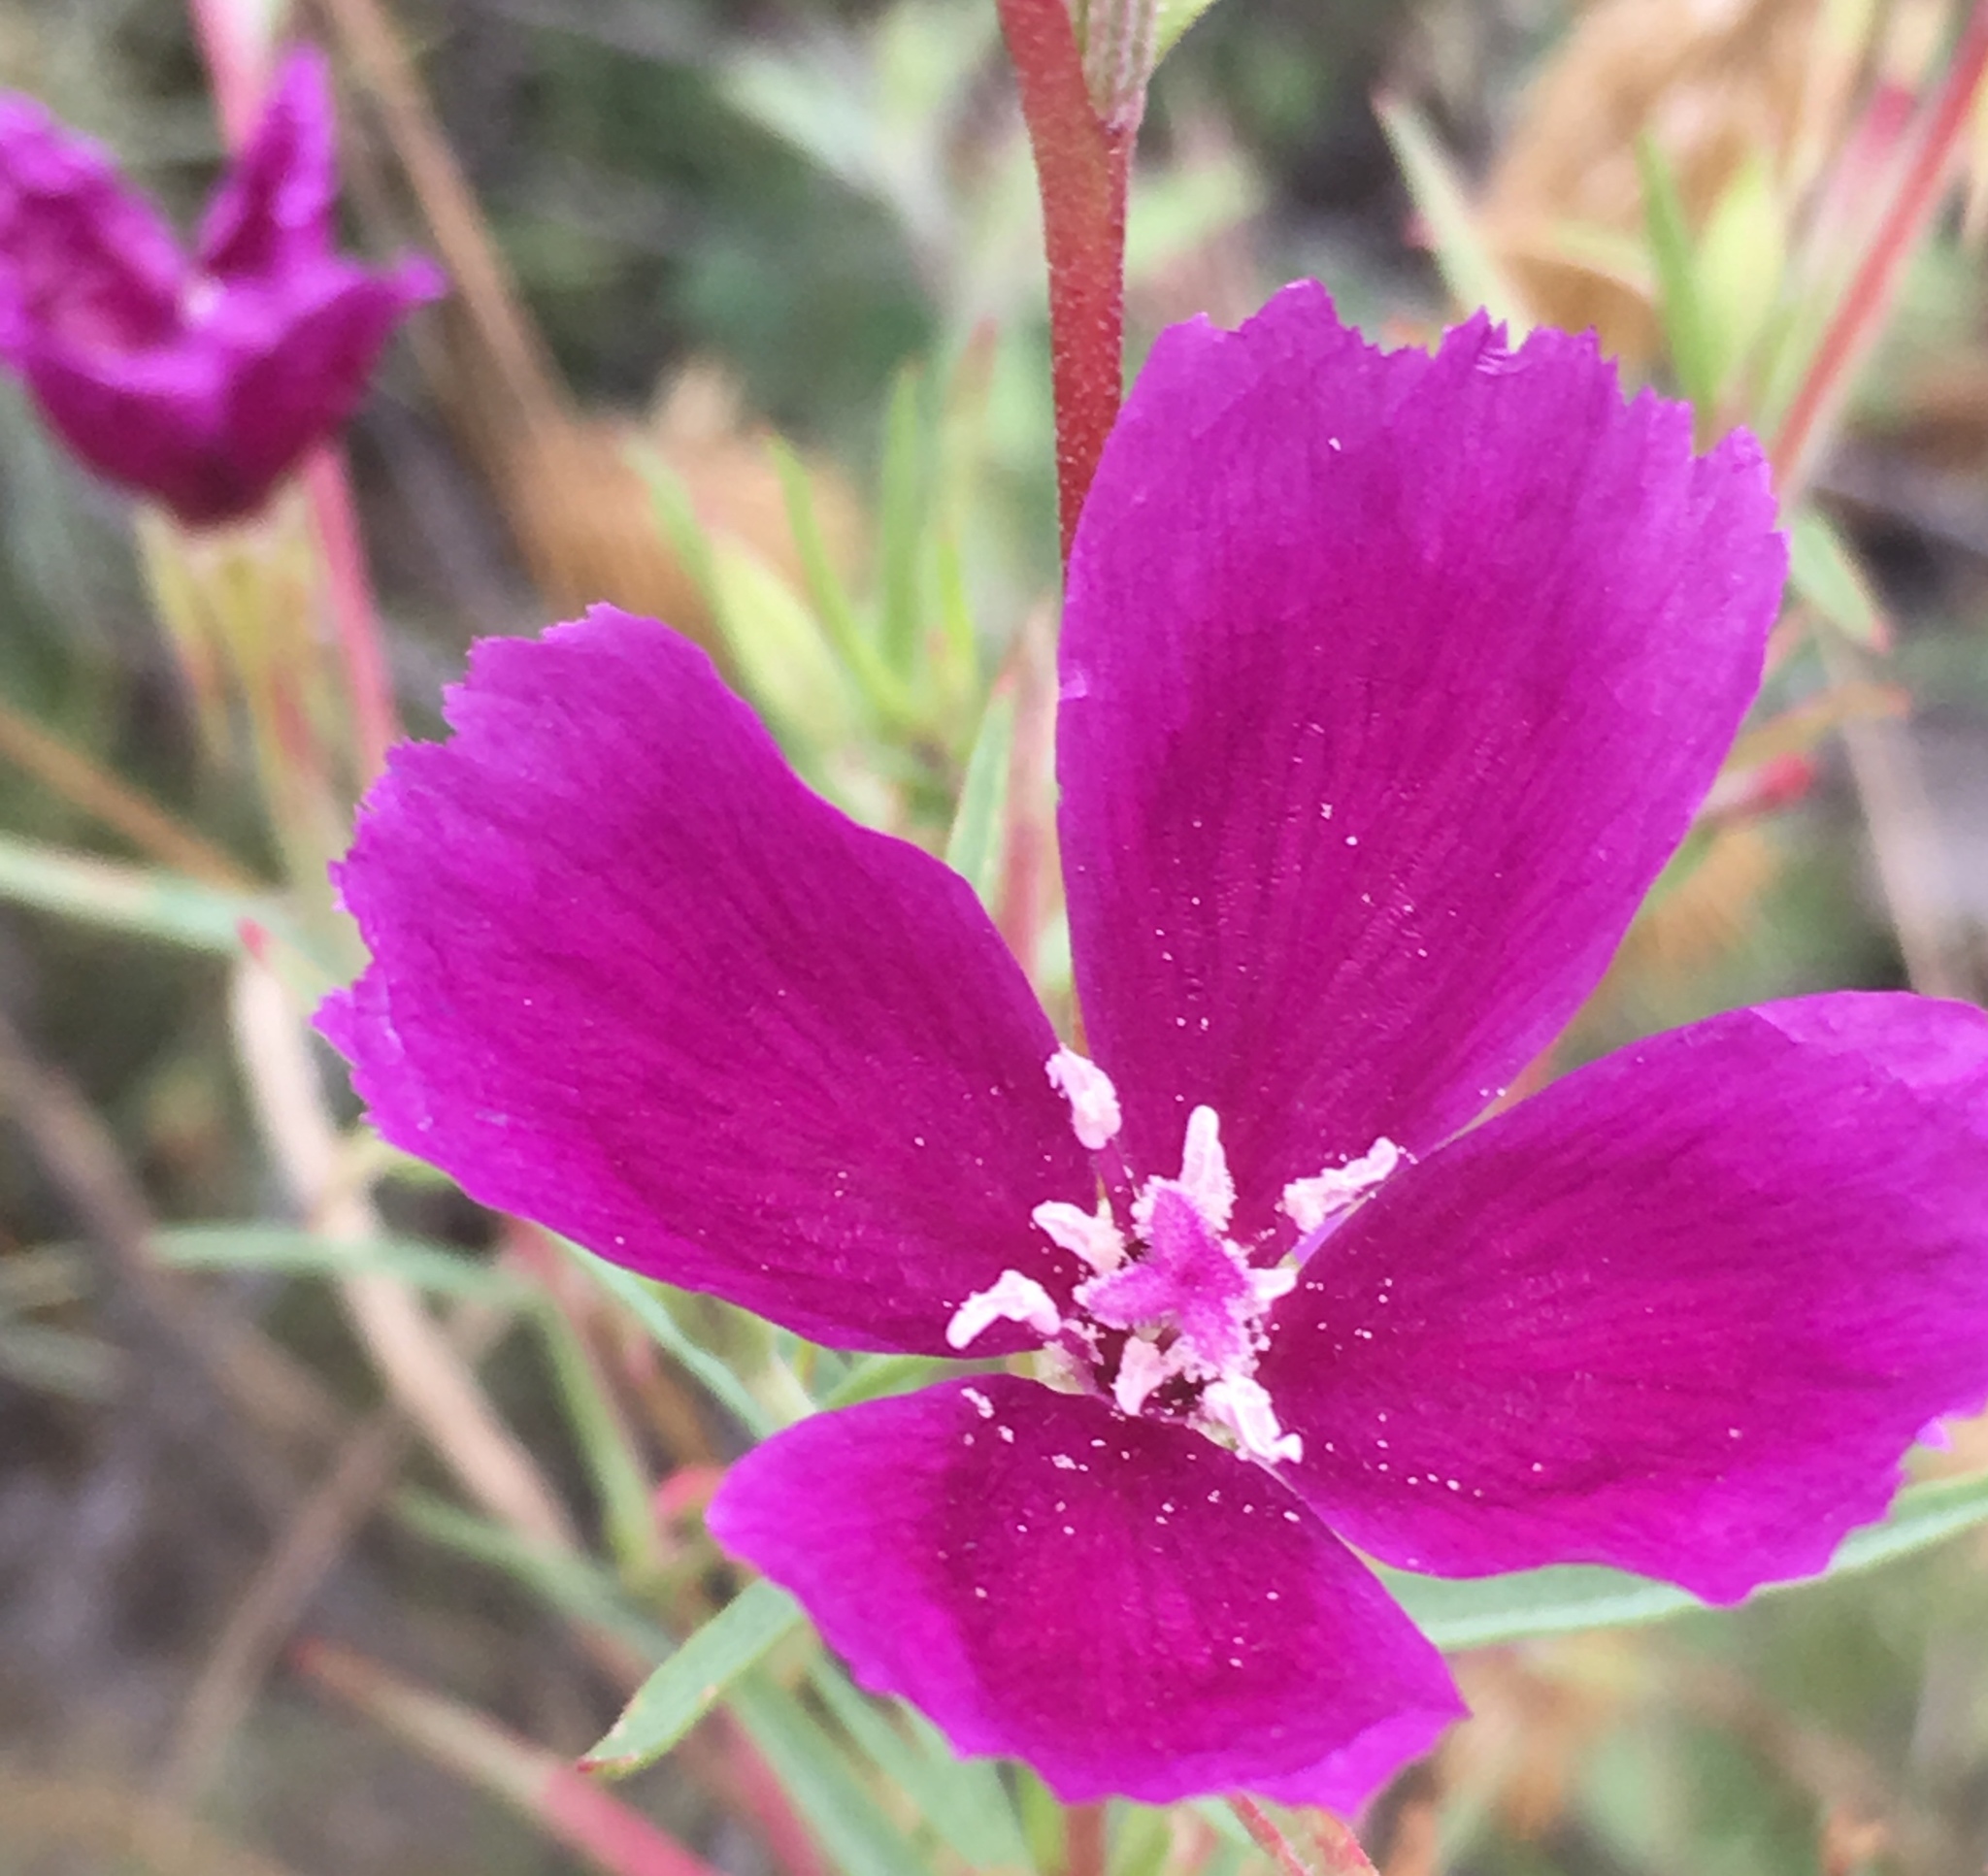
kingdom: Plantae
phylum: Tracheophyta
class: Magnoliopsida
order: Myrtales
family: Onagraceae
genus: Clarkia
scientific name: Clarkia purpurea
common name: Purple clarkia
